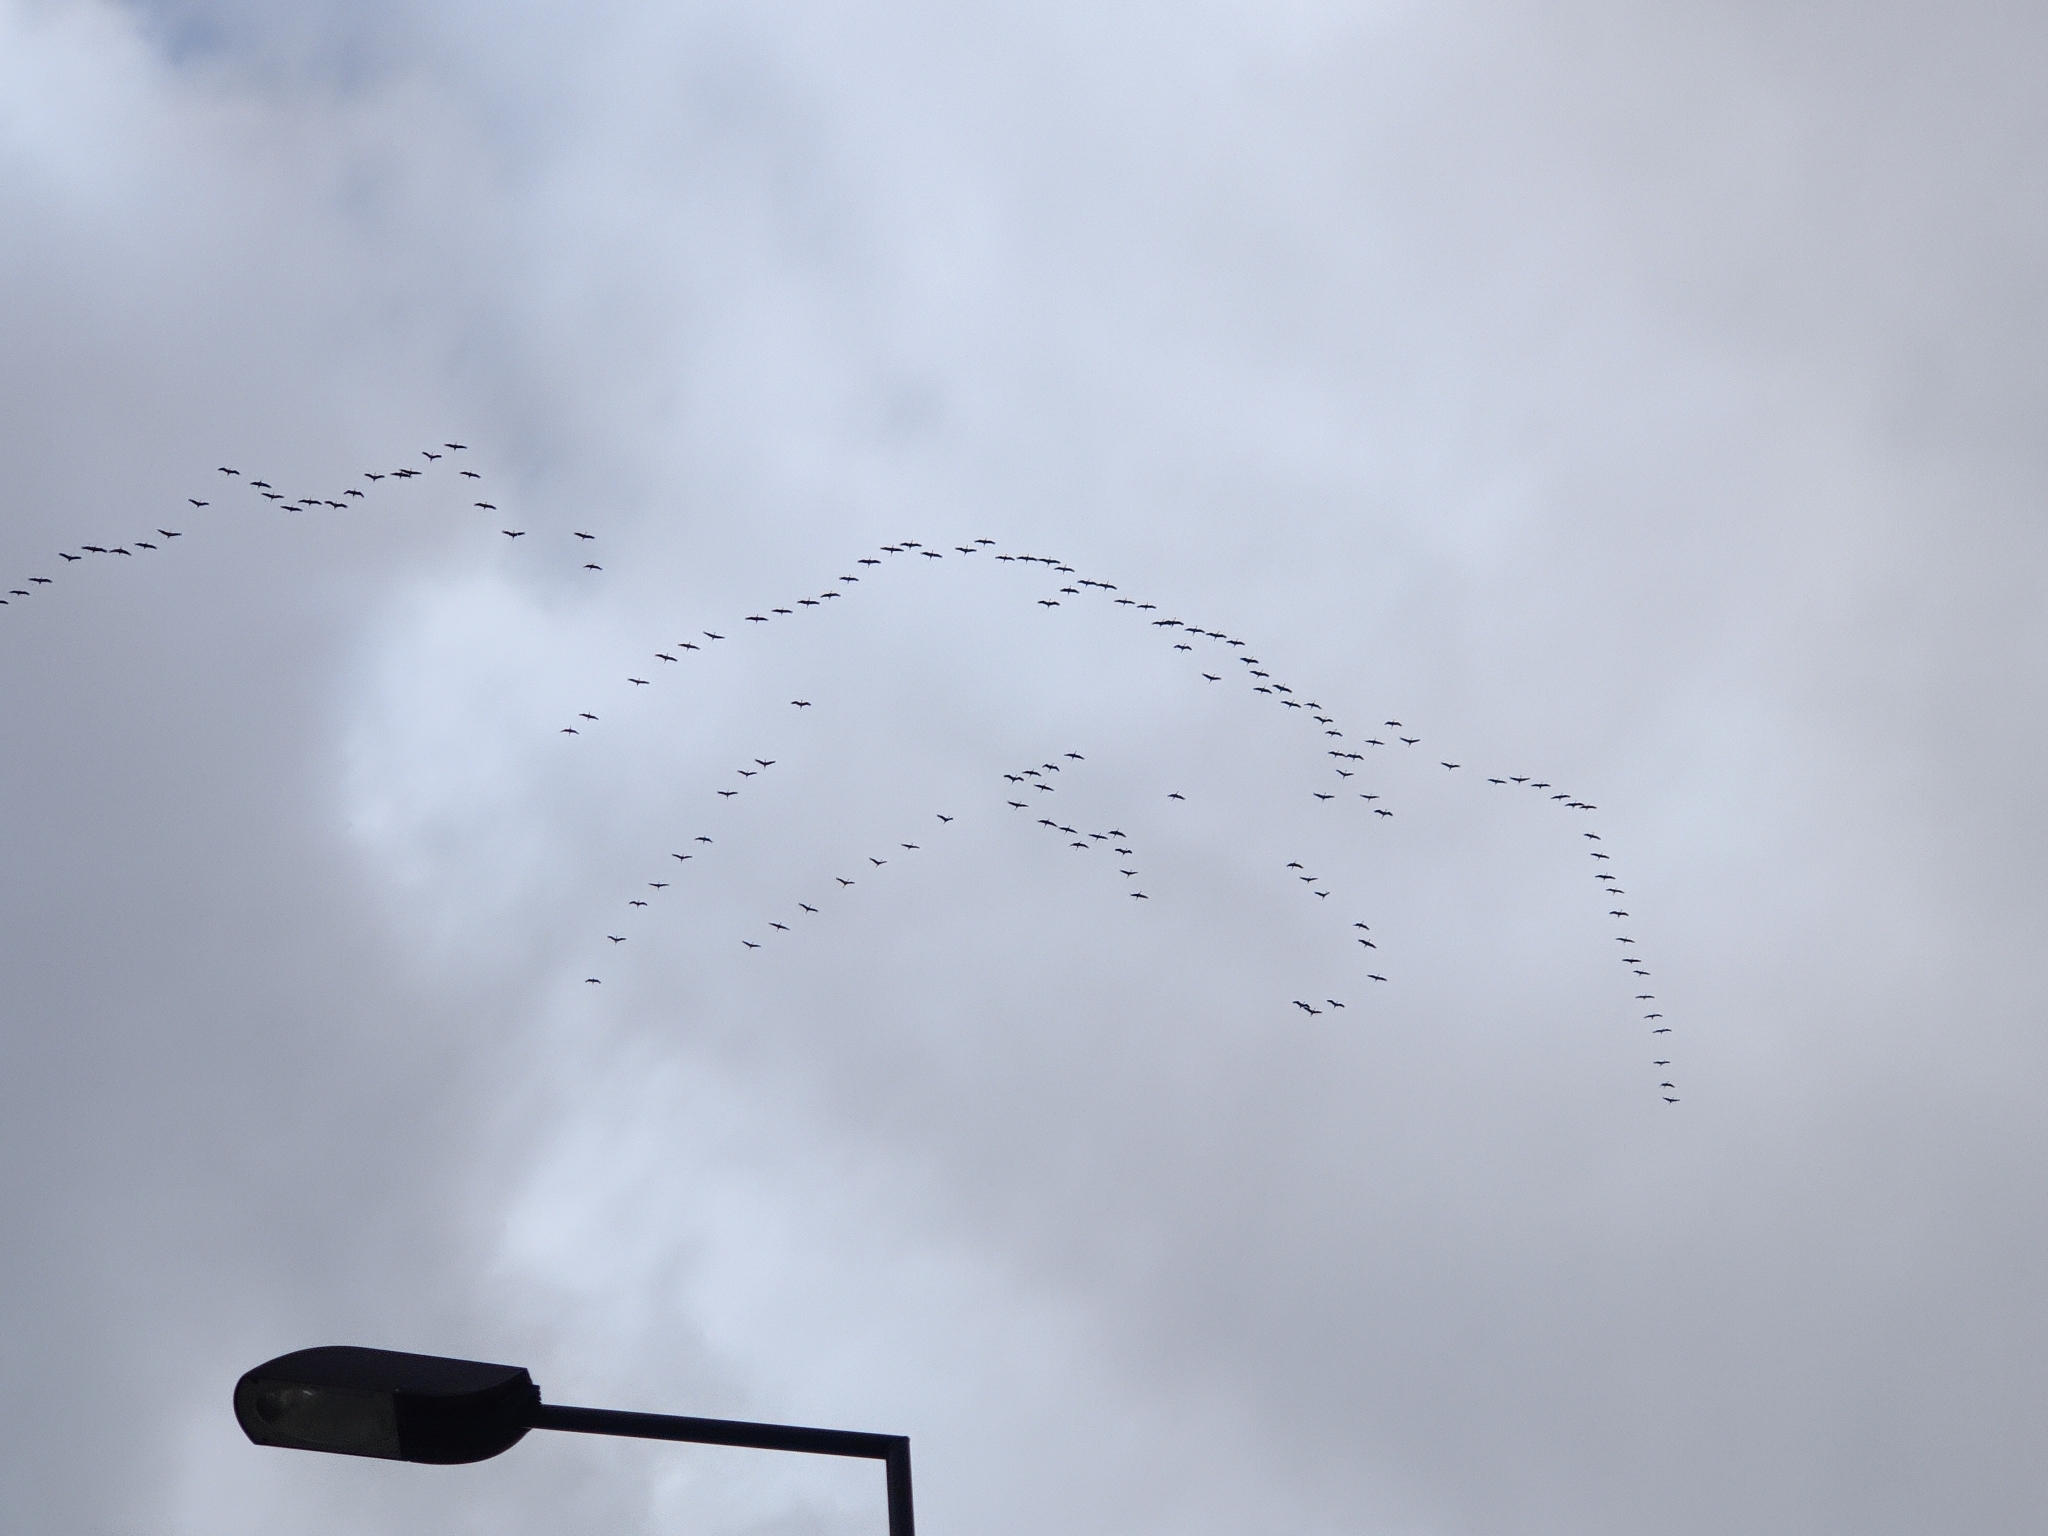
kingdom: Animalia
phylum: Chordata
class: Aves
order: Gruiformes
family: Gruidae
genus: Grus
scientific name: Grus grus
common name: Common crane
